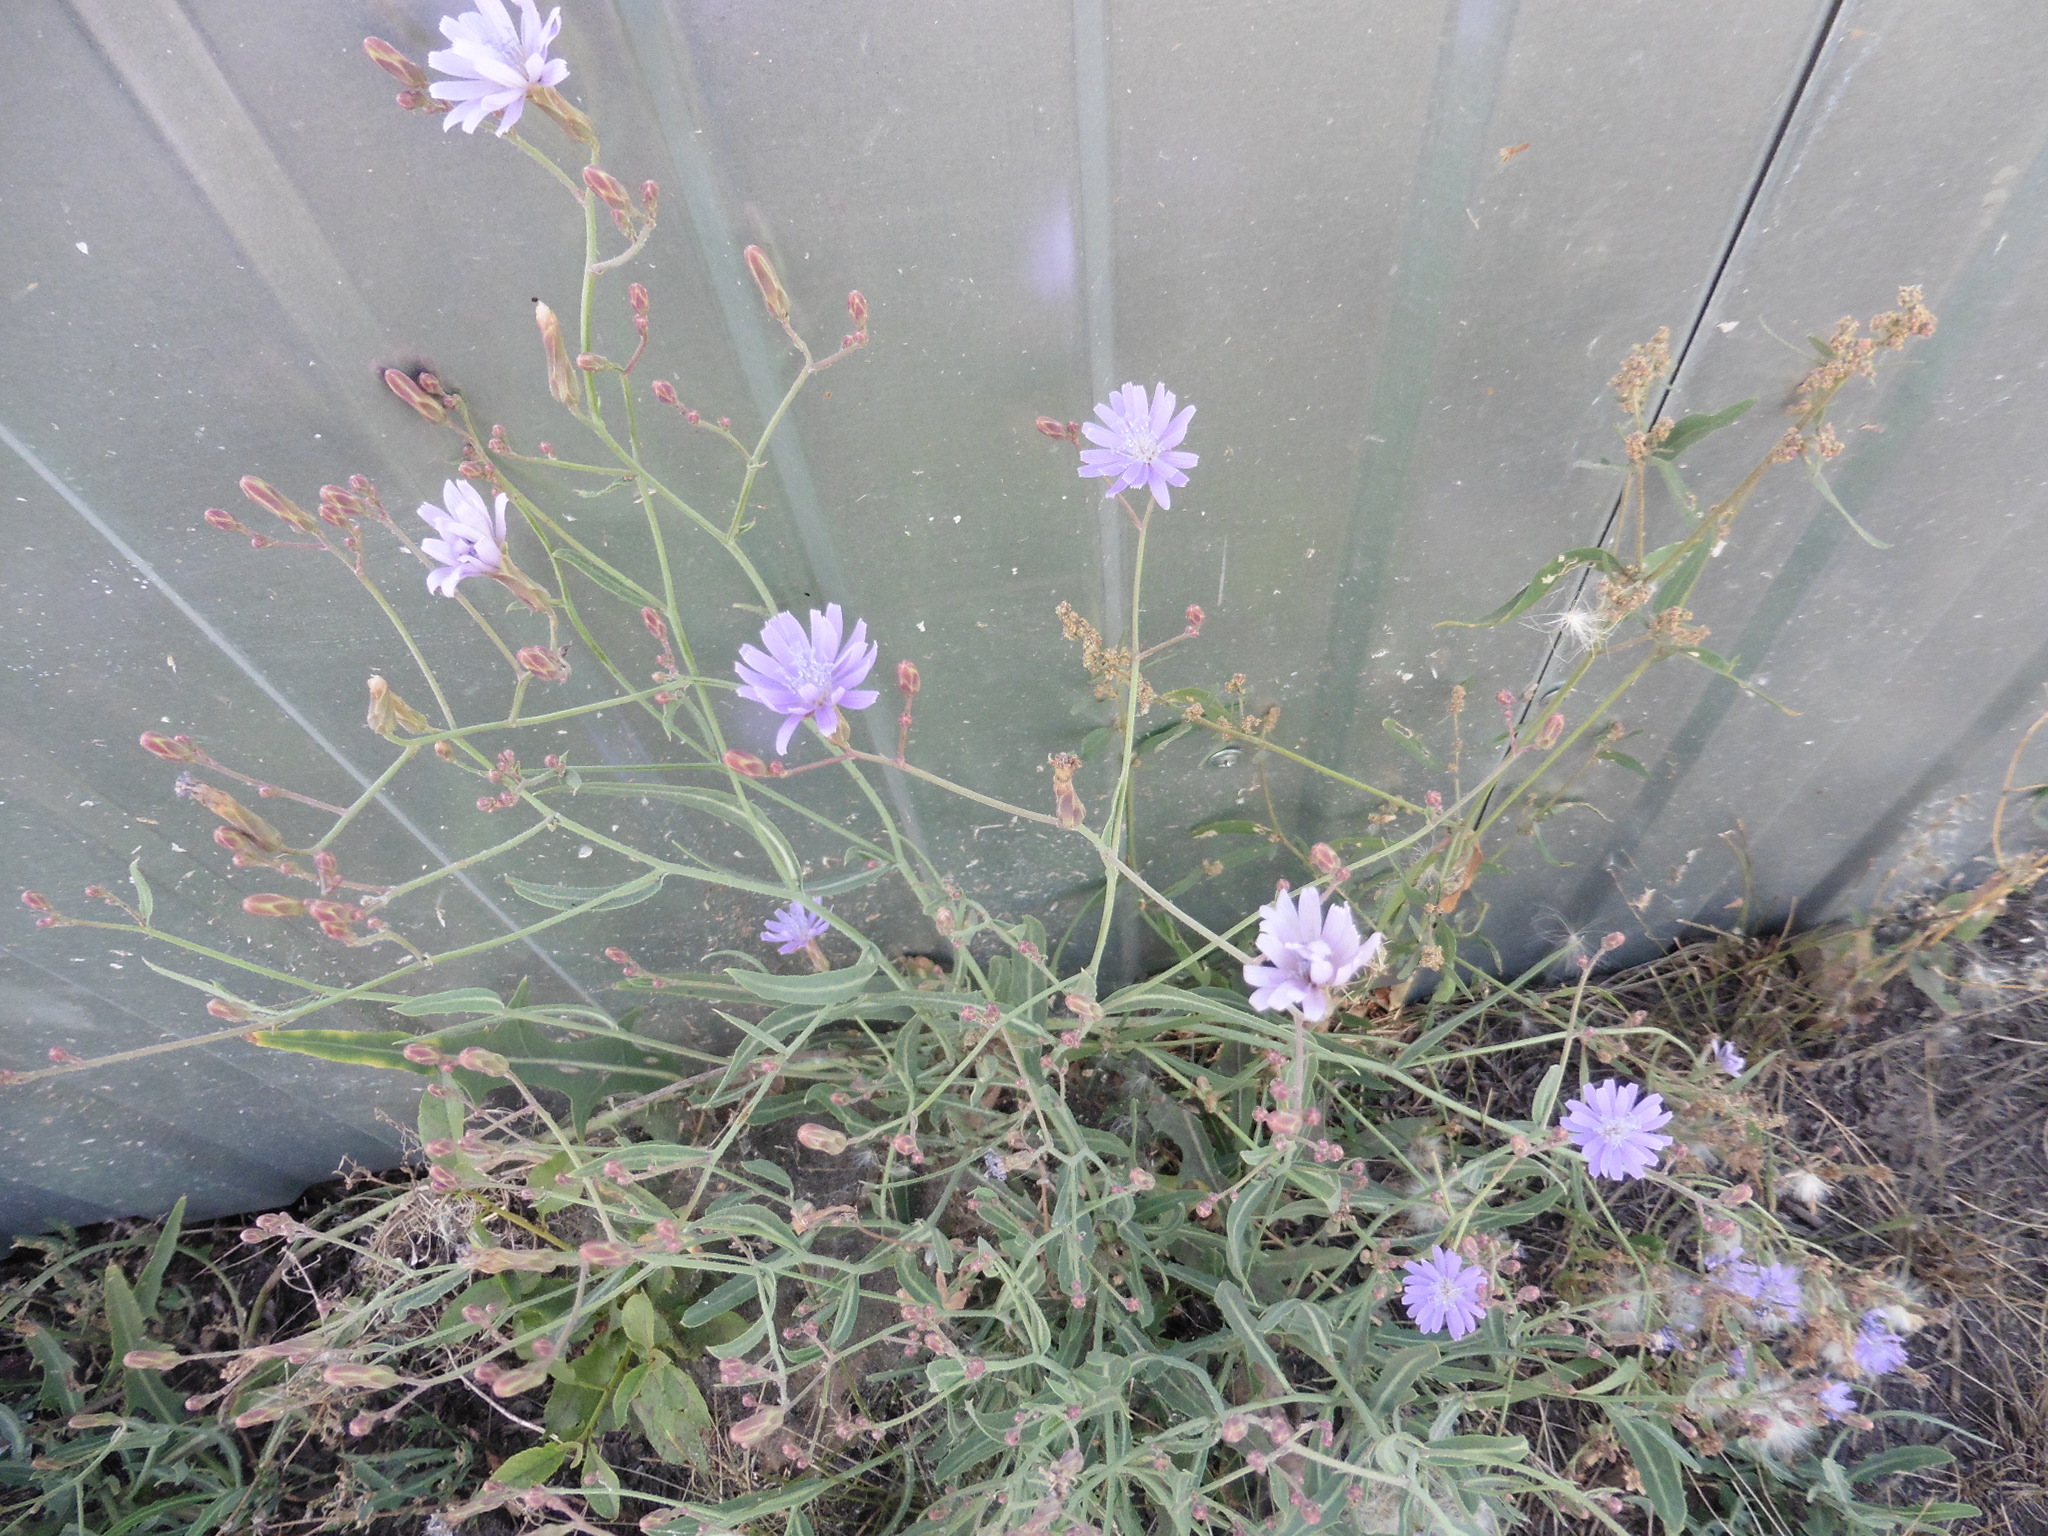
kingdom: Plantae
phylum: Tracheophyta
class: Magnoliopsida
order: Asterales
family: Asteraceae
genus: Lactuca
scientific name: Lactuca tatarica
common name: Blue lettuce
